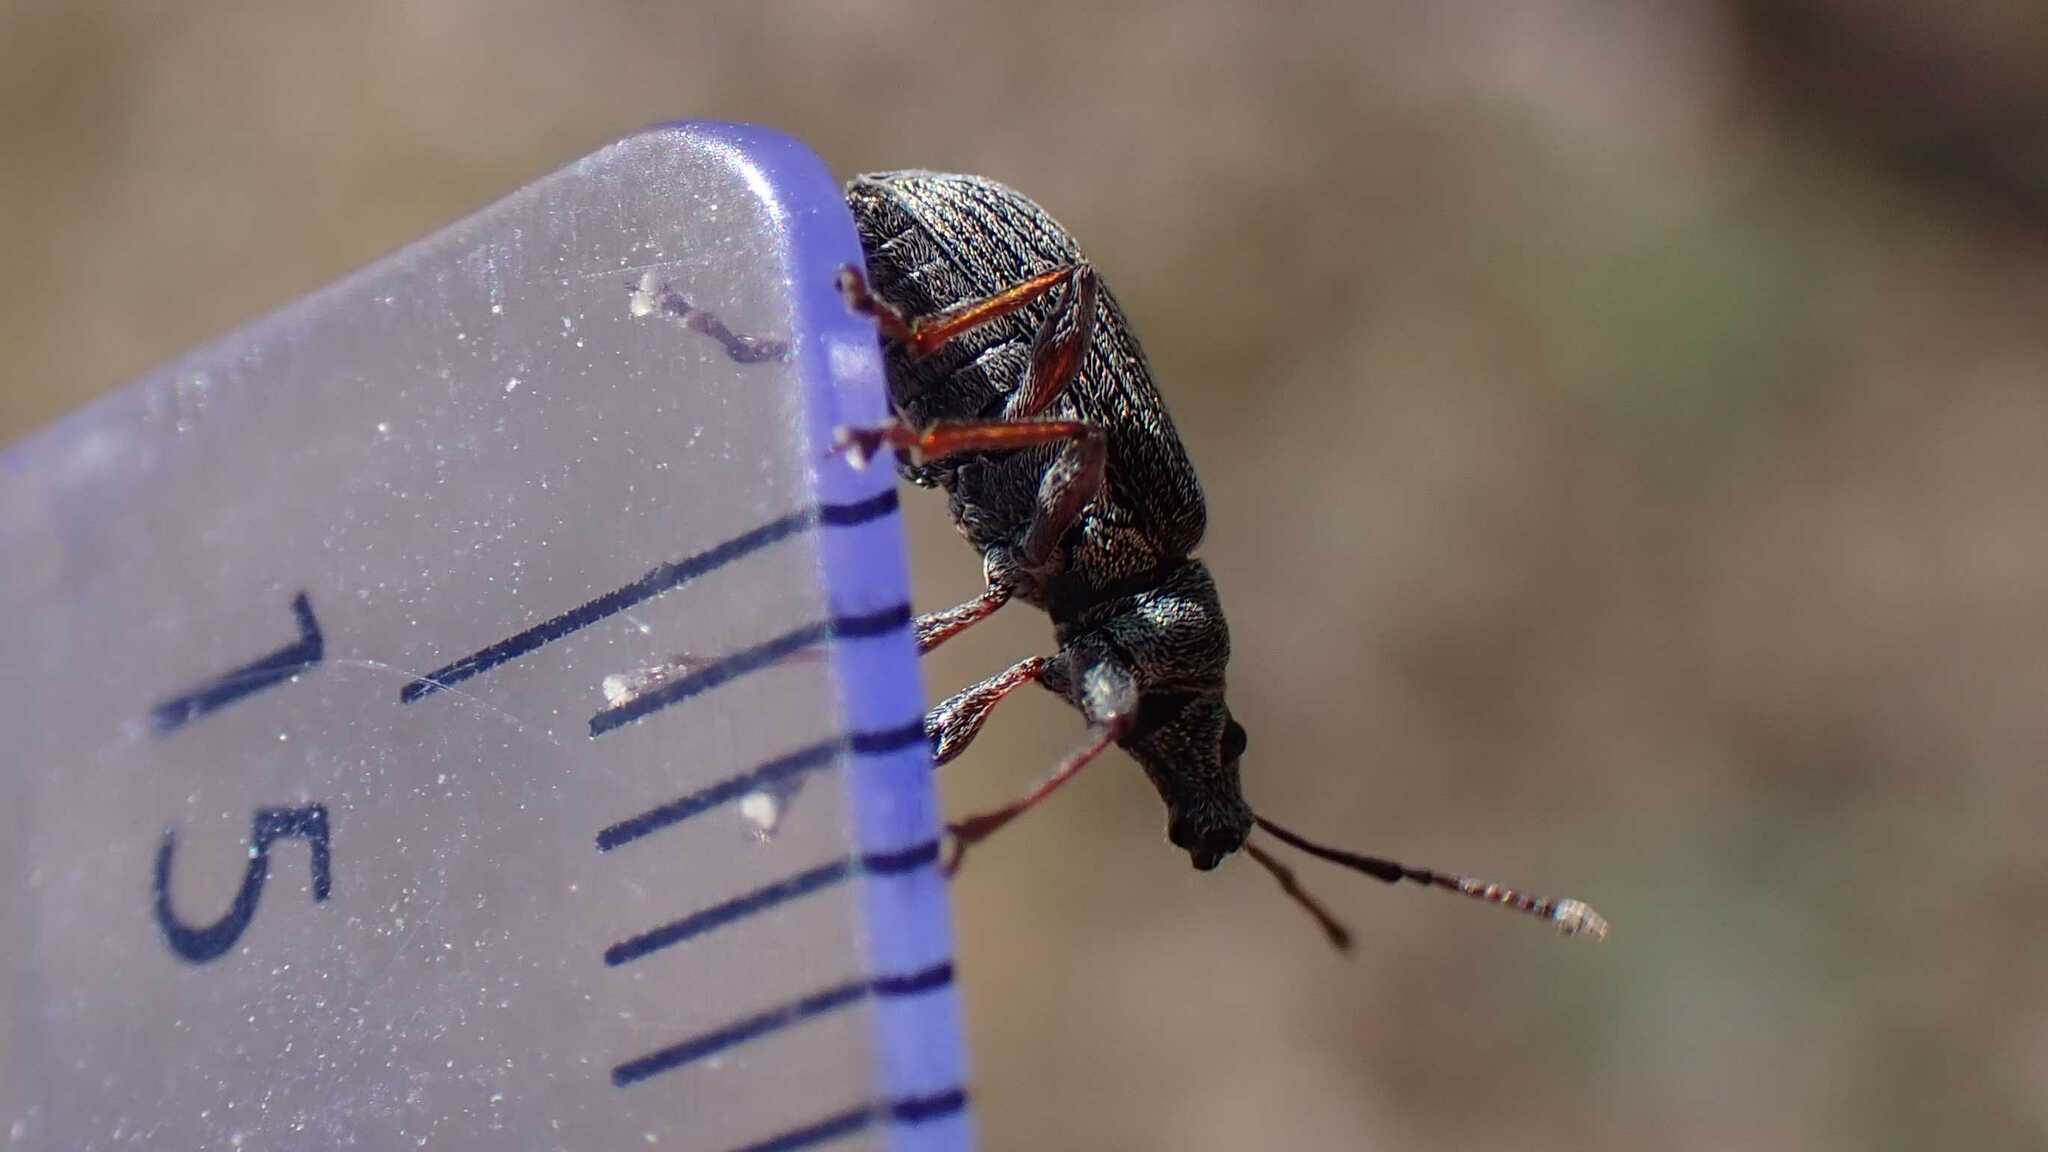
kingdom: Animalia
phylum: Arthropoda
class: Insecta
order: Coleoptera
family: Curculionidae
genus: Phyllobius
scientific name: Phyllobius pyri
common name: Common leaf weevil
